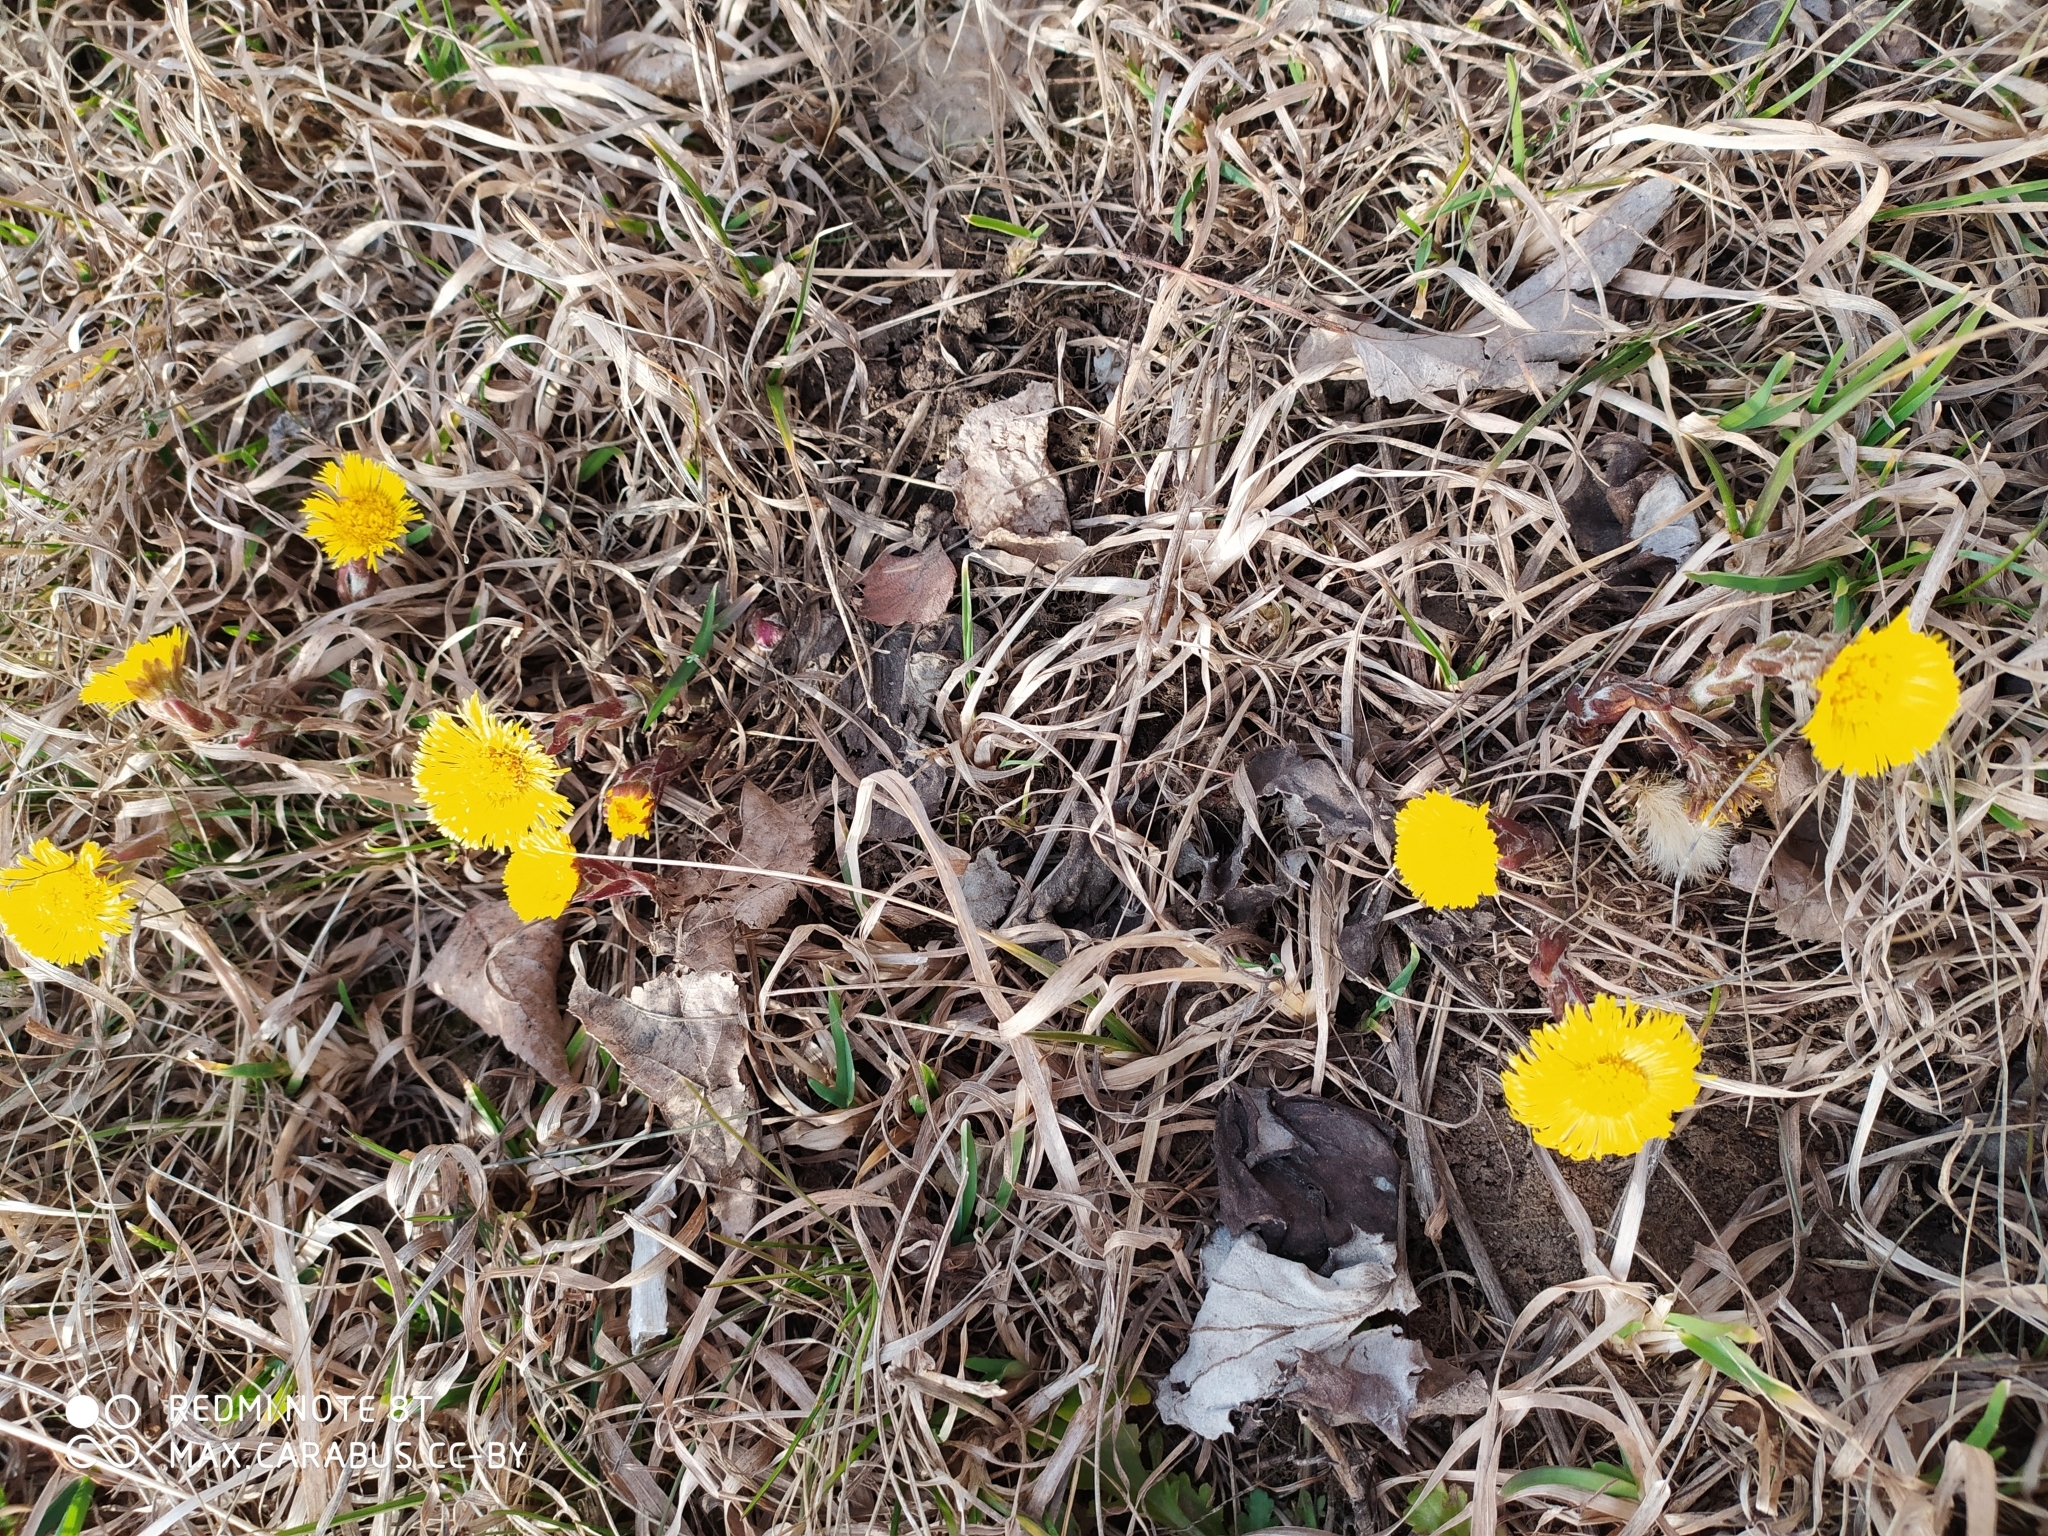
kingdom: Plantae
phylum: Tracheophyta
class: Magnoliopsida
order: Asterales
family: Asteraceae
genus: Tussilago
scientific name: Tussilago farfara
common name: Coltsfoot
